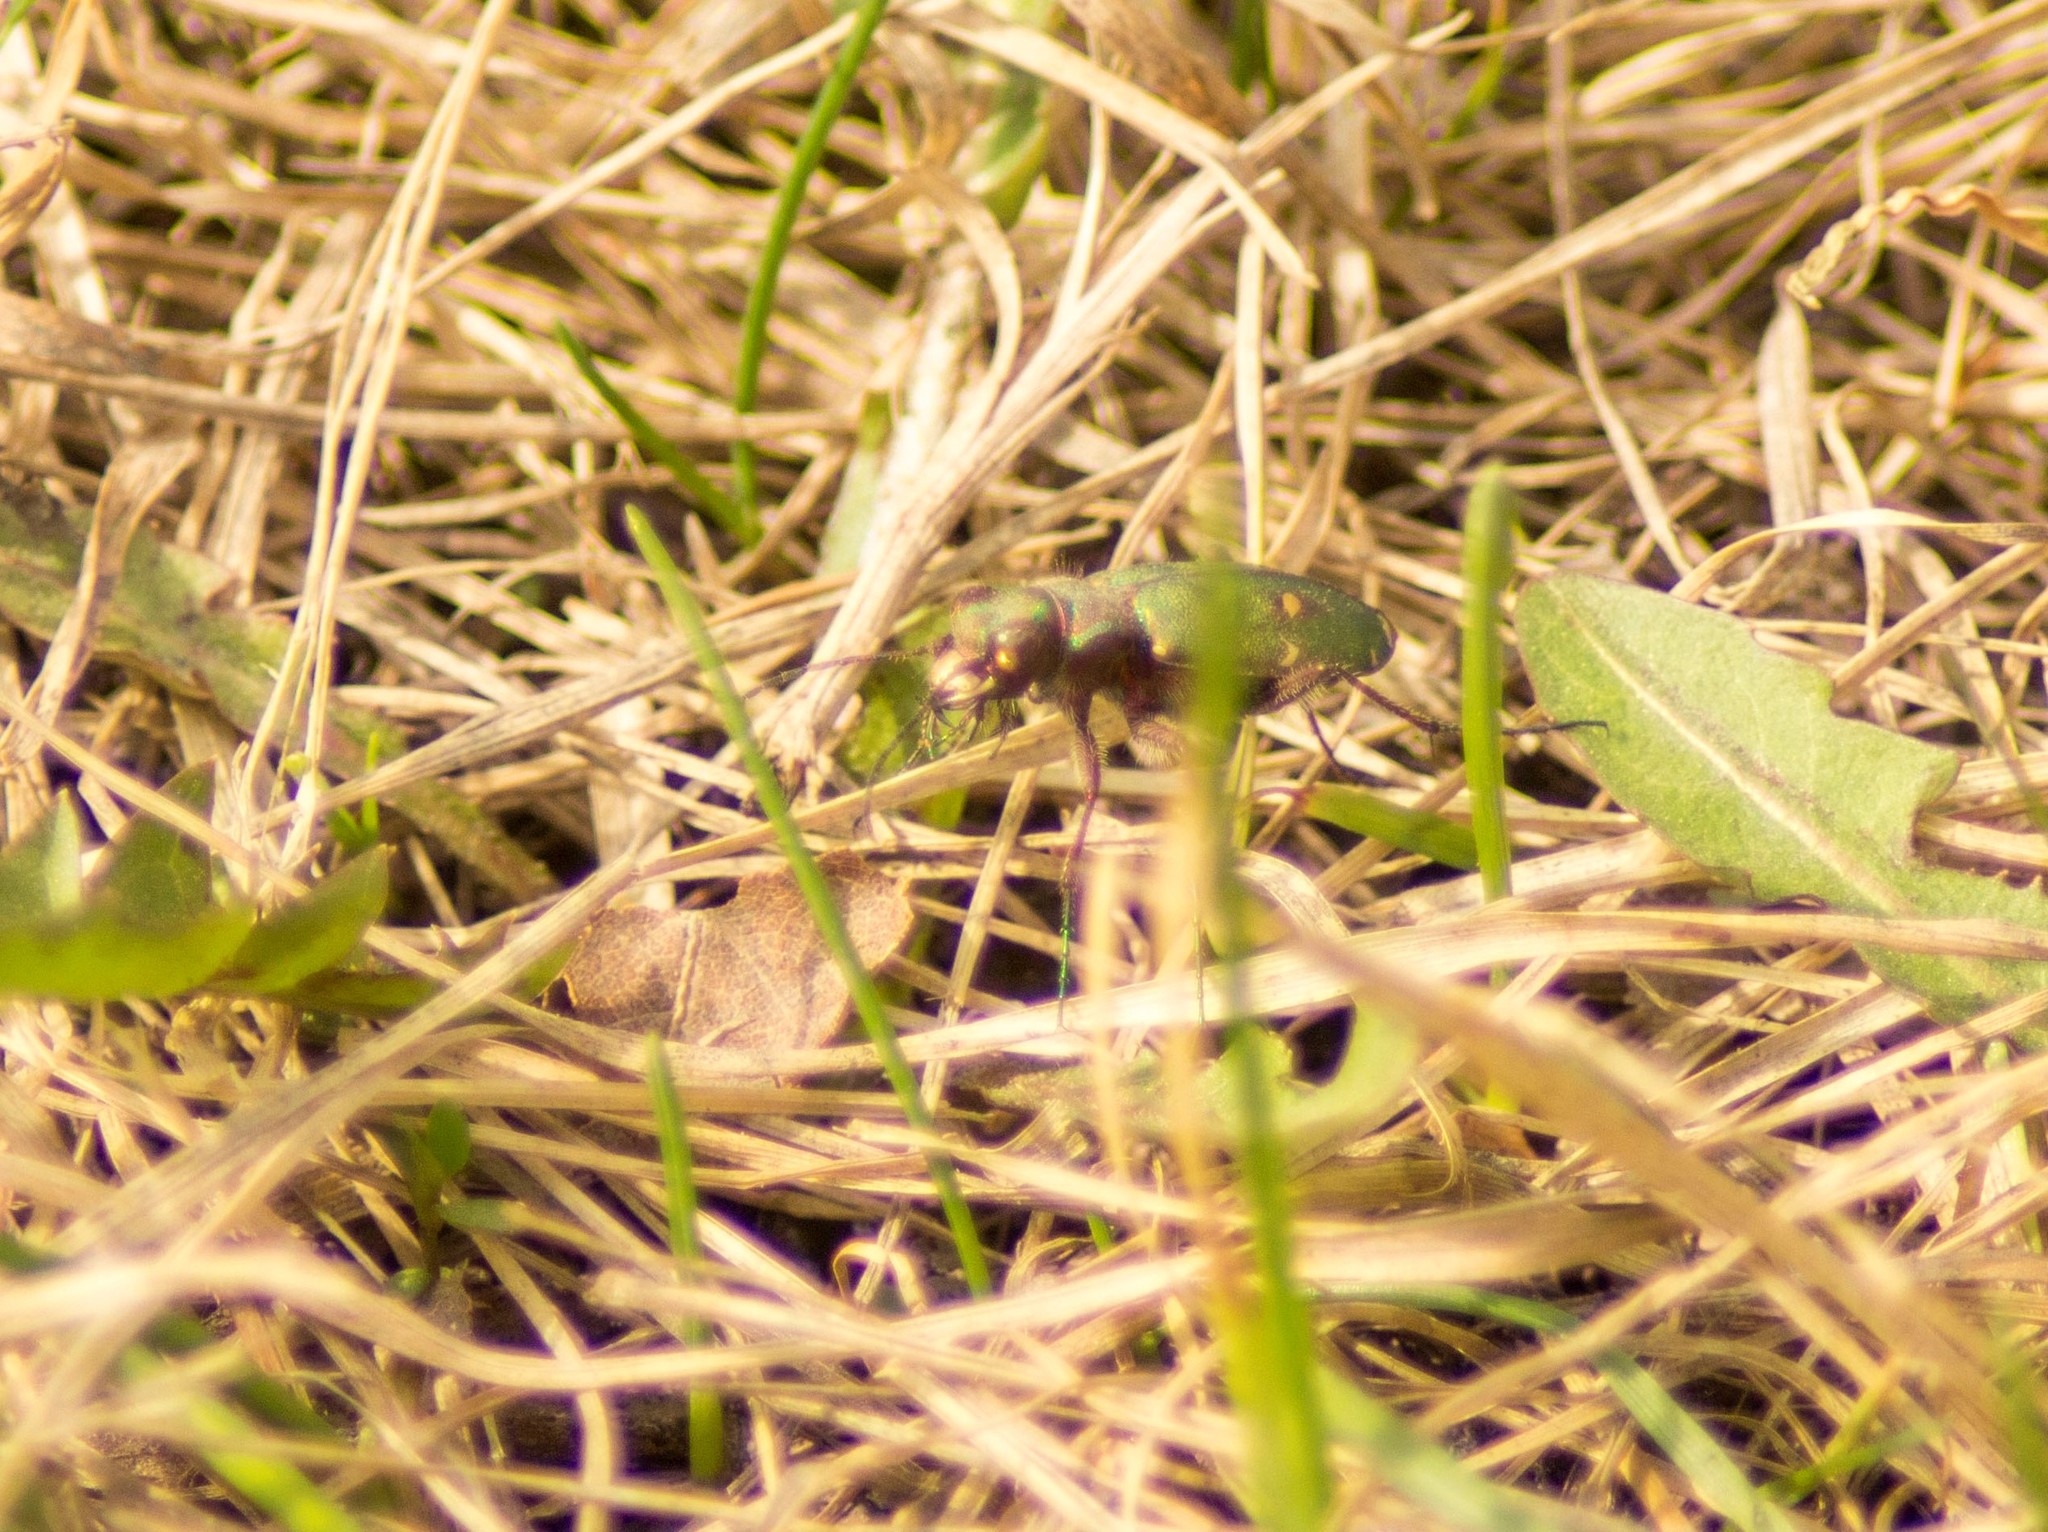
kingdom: Animalia
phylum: Arthropoda
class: Insecta
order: Coleoptera
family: Carabidae
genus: Cicindela
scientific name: Cicindela campestris
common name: Common tiger beetle
